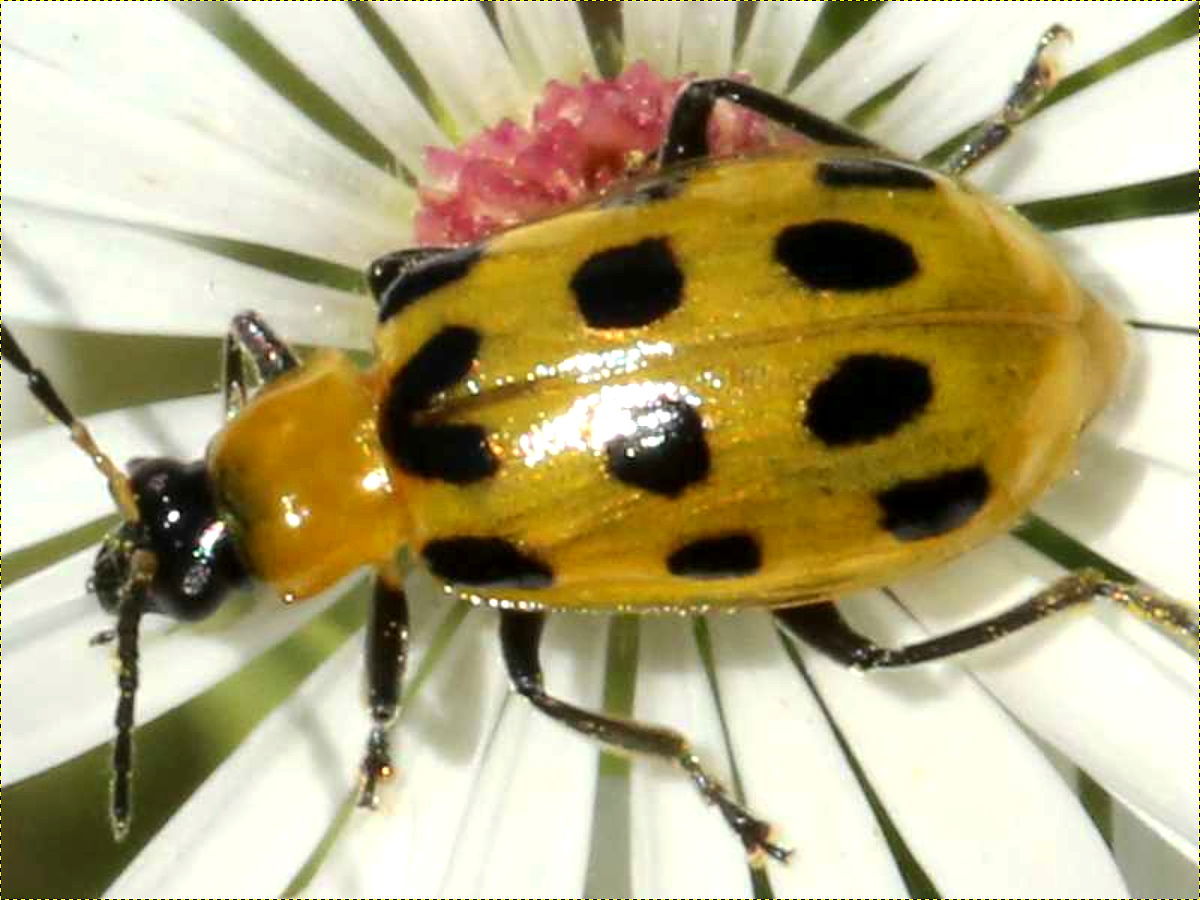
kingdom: Animalia
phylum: Arthropoda
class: Insecta
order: Coleoptera
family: Chrysomelidae
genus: Diabrotica
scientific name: Diabrotica undecimpunctata
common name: Spotted cucumber beetle
